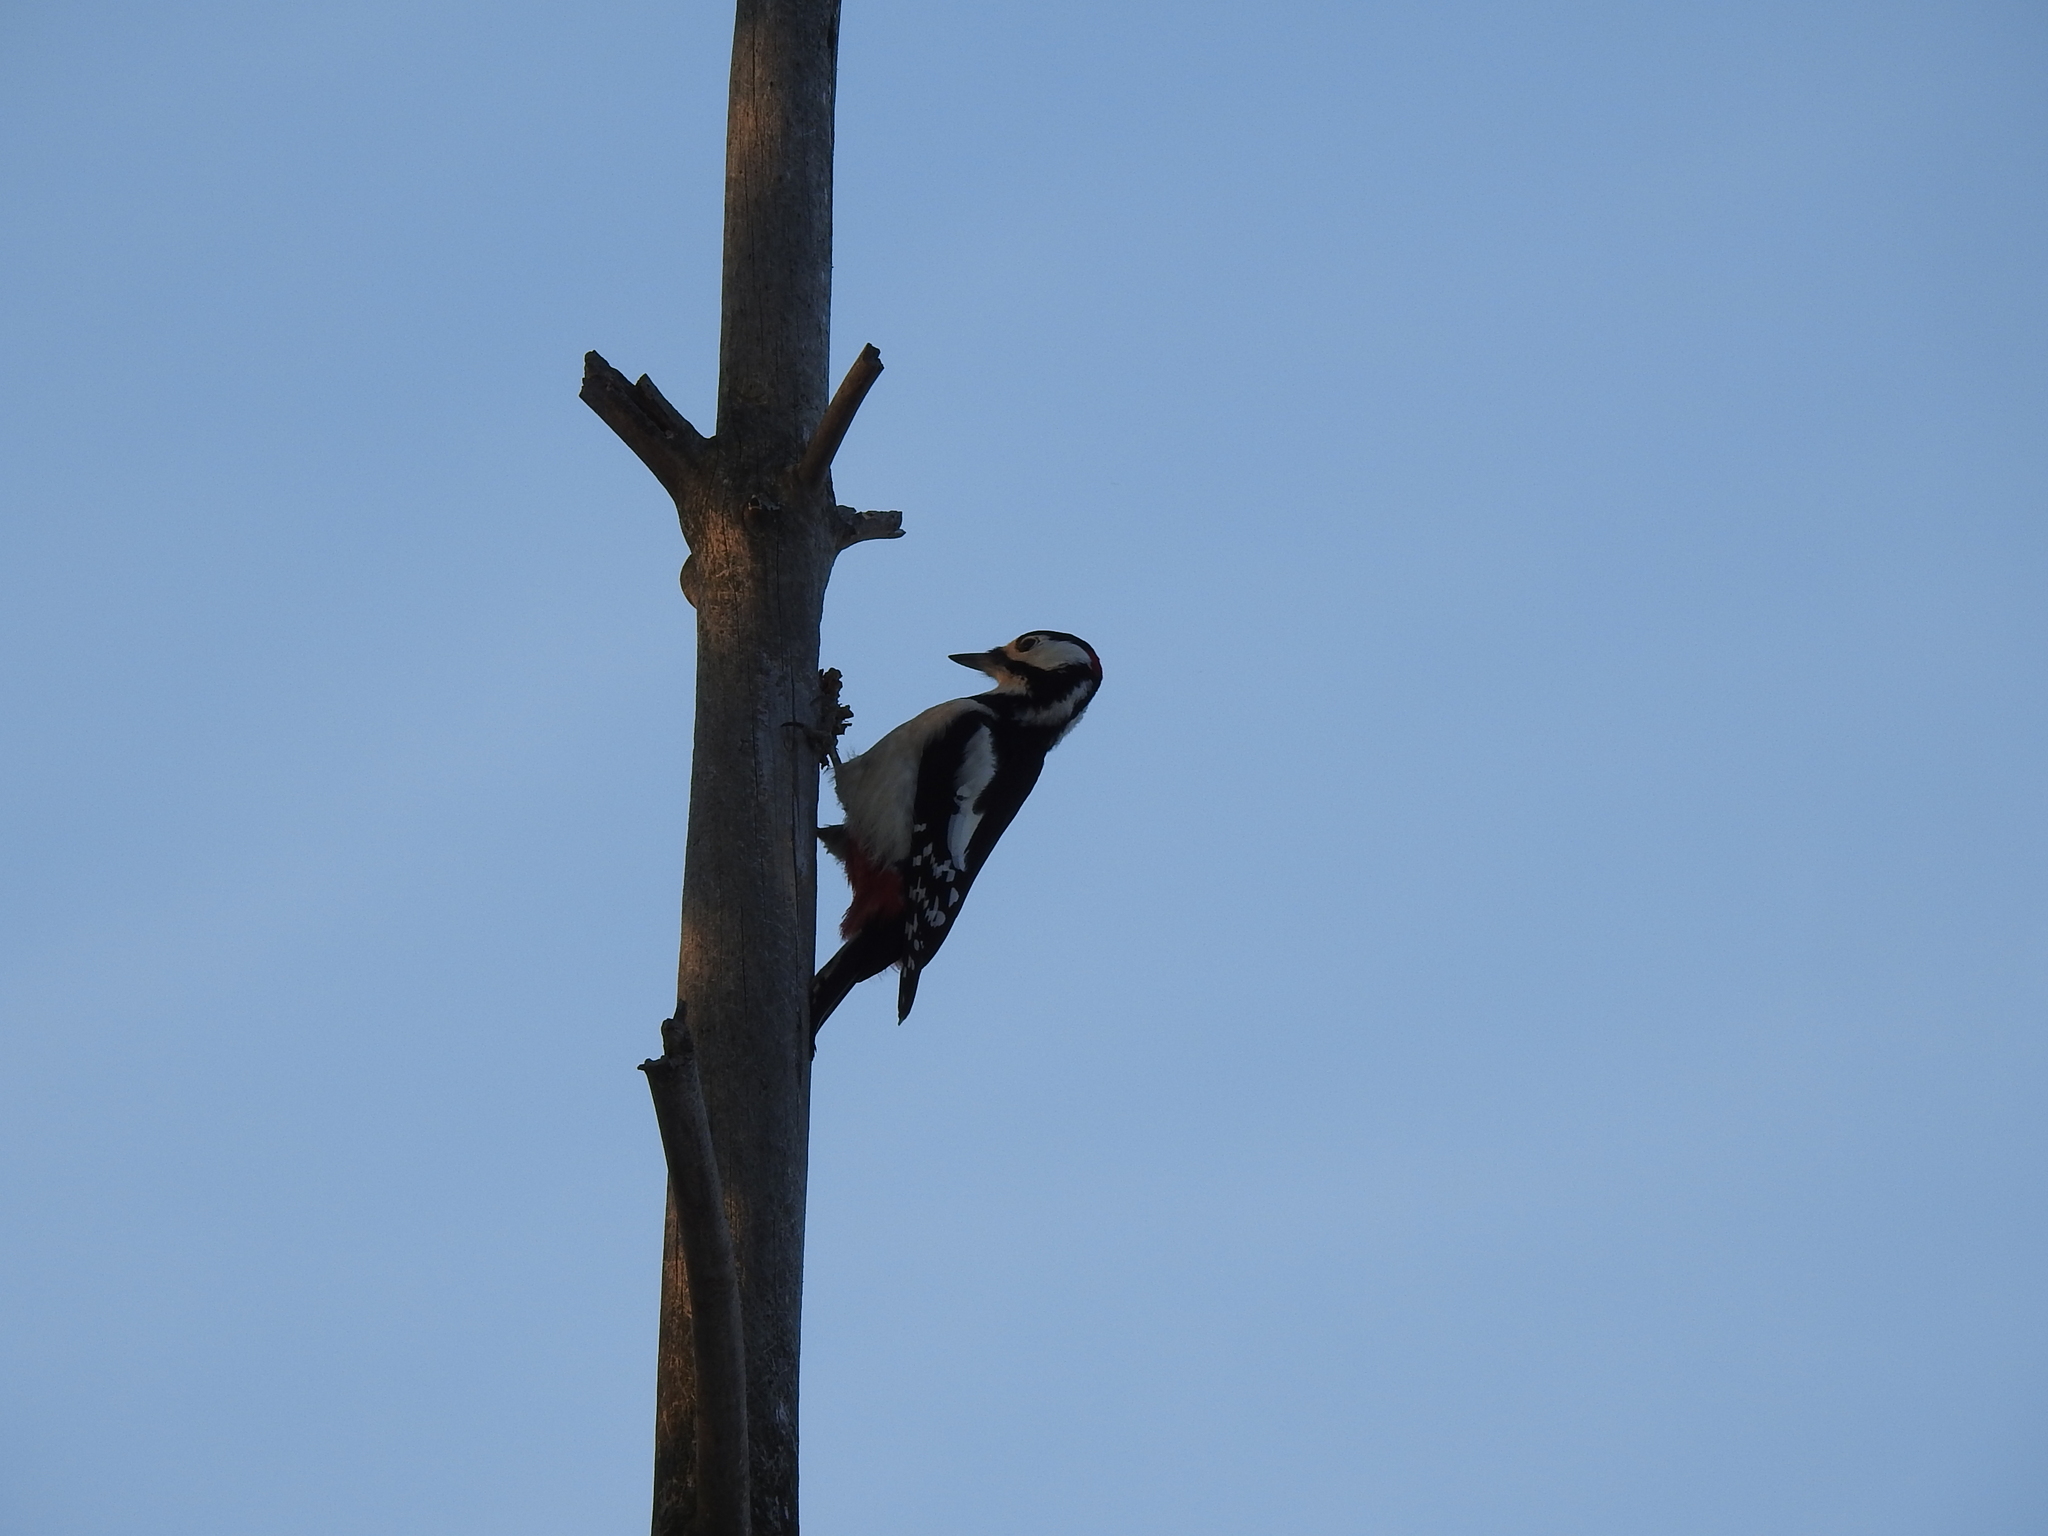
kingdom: Animalia
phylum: Chordata
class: Aves
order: Piciformes
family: Picidae
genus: Dendrocopos
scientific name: Dendrocopos major
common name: Great spotted woodpecker
